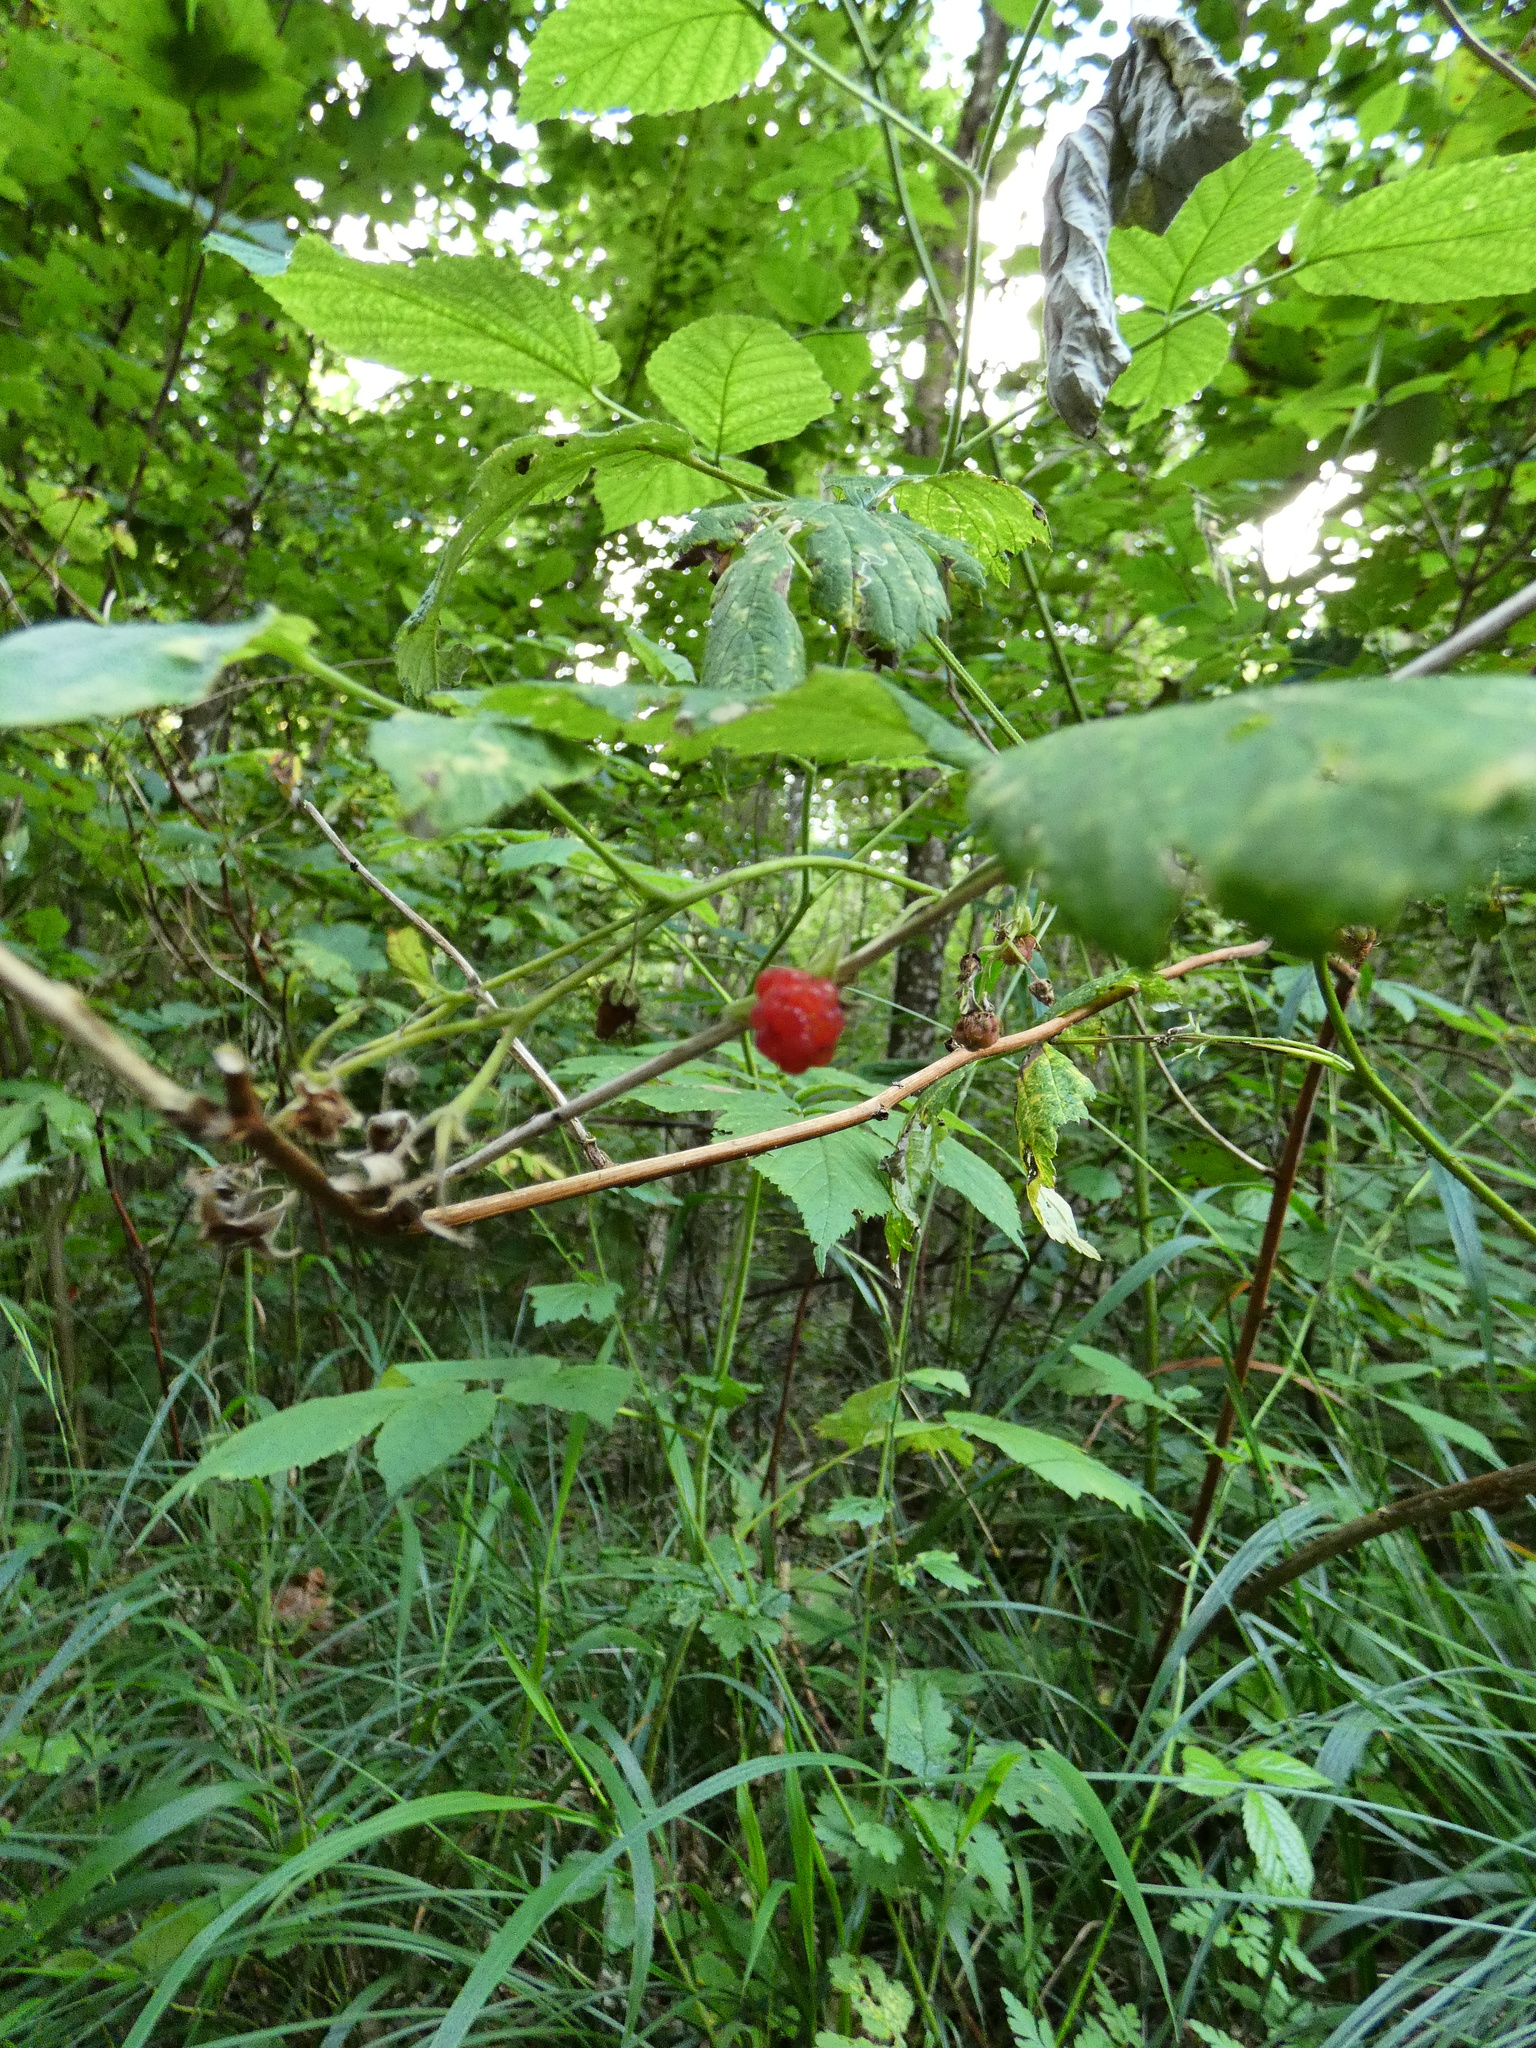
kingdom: Plantae
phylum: Tracheophyta
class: Magnoliopsida
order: Rosales
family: Rosaceae
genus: Rubus
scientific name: Rubus idaeus
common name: Raspberry
